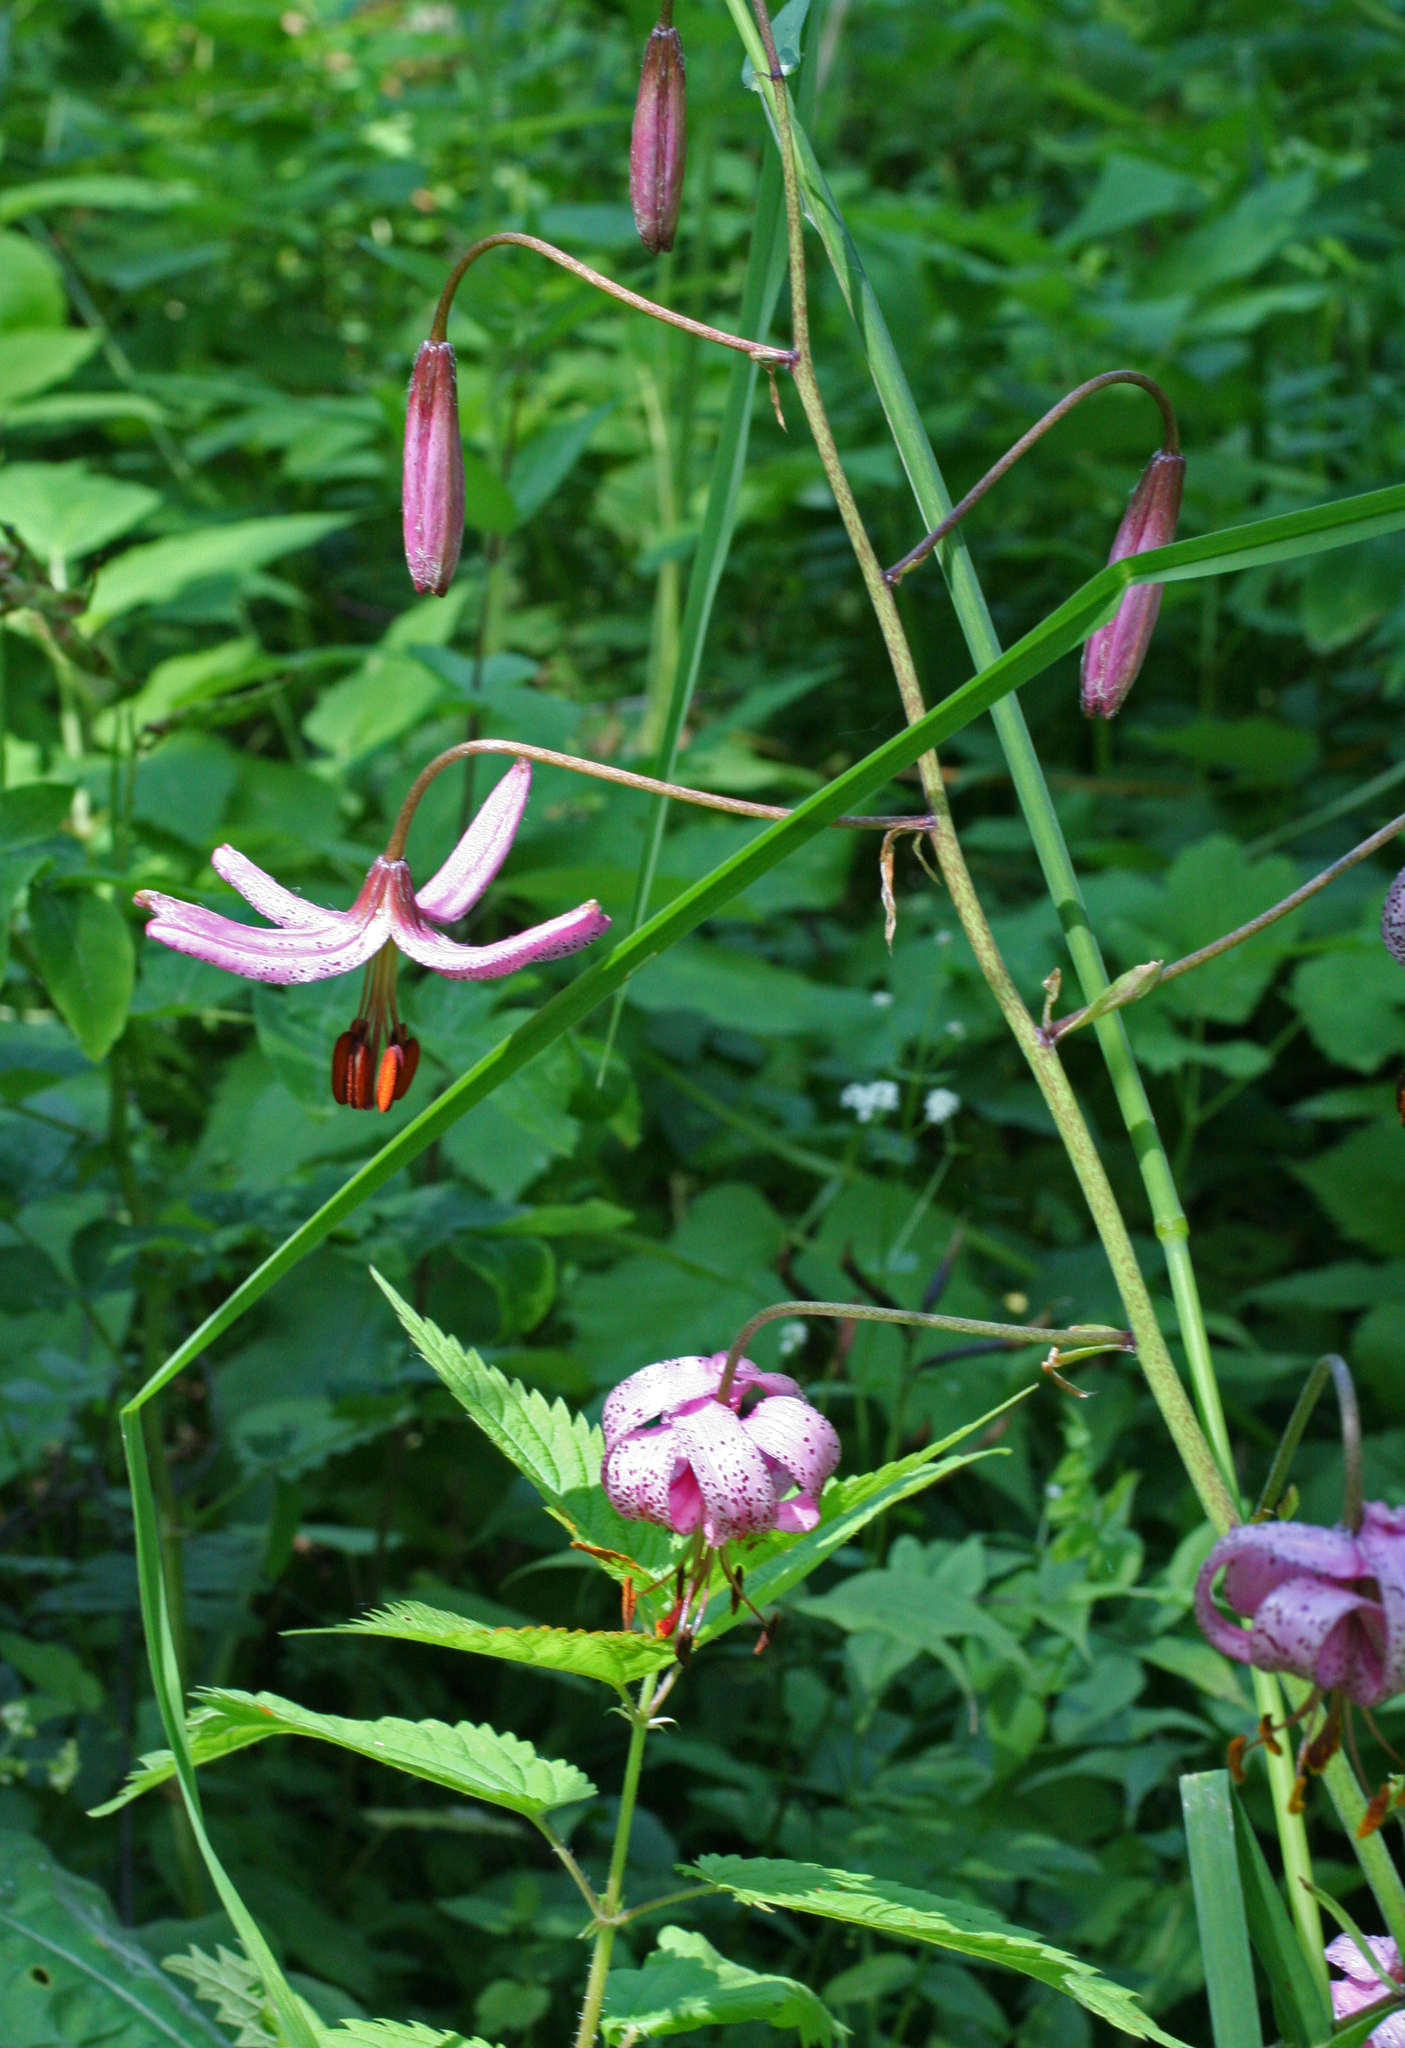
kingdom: Plantae
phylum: Tracheophyta
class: Liliopsida
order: Liliales
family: Liliaceae
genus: Lilium
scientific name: Lilium martagon
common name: Martagon lily
